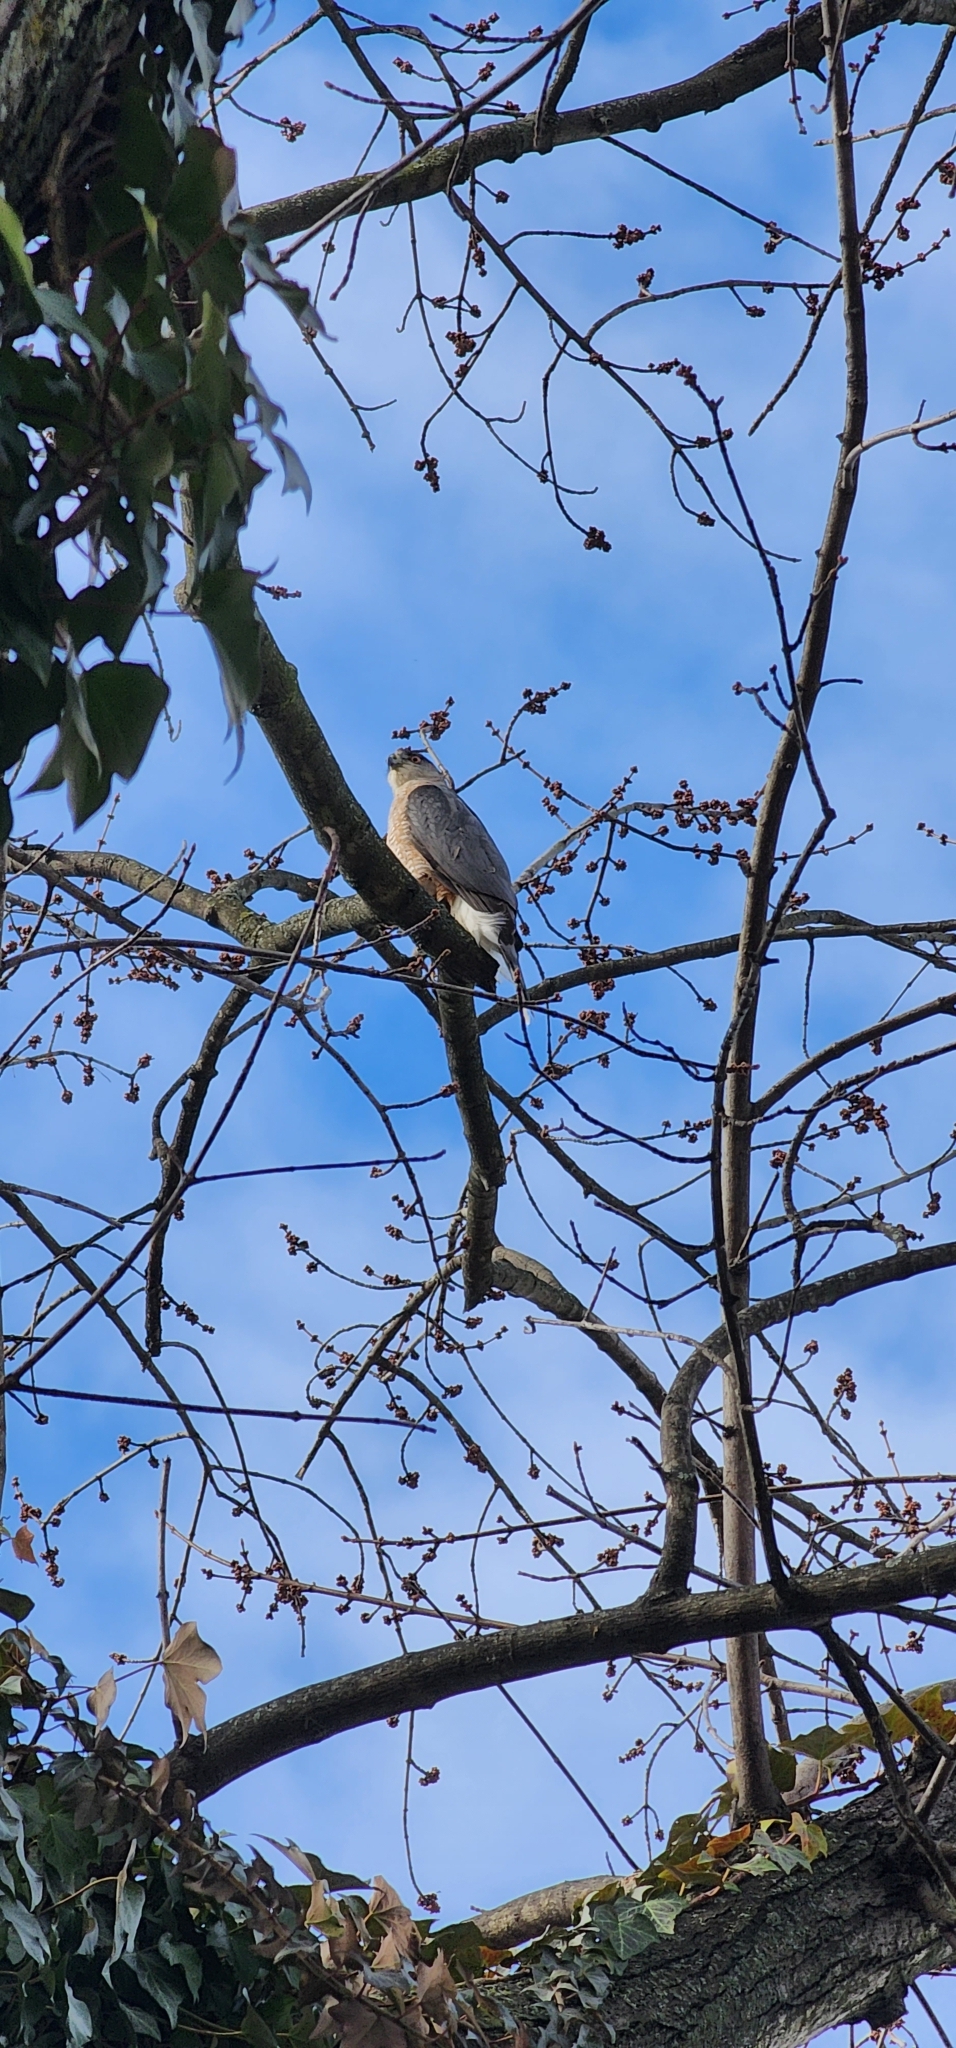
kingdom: Animalia
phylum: Chordata
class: Aves
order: Accipitriformes
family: Accipitridae
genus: Accipiter
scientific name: Accipiter cooperii
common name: Cooper's hawk
